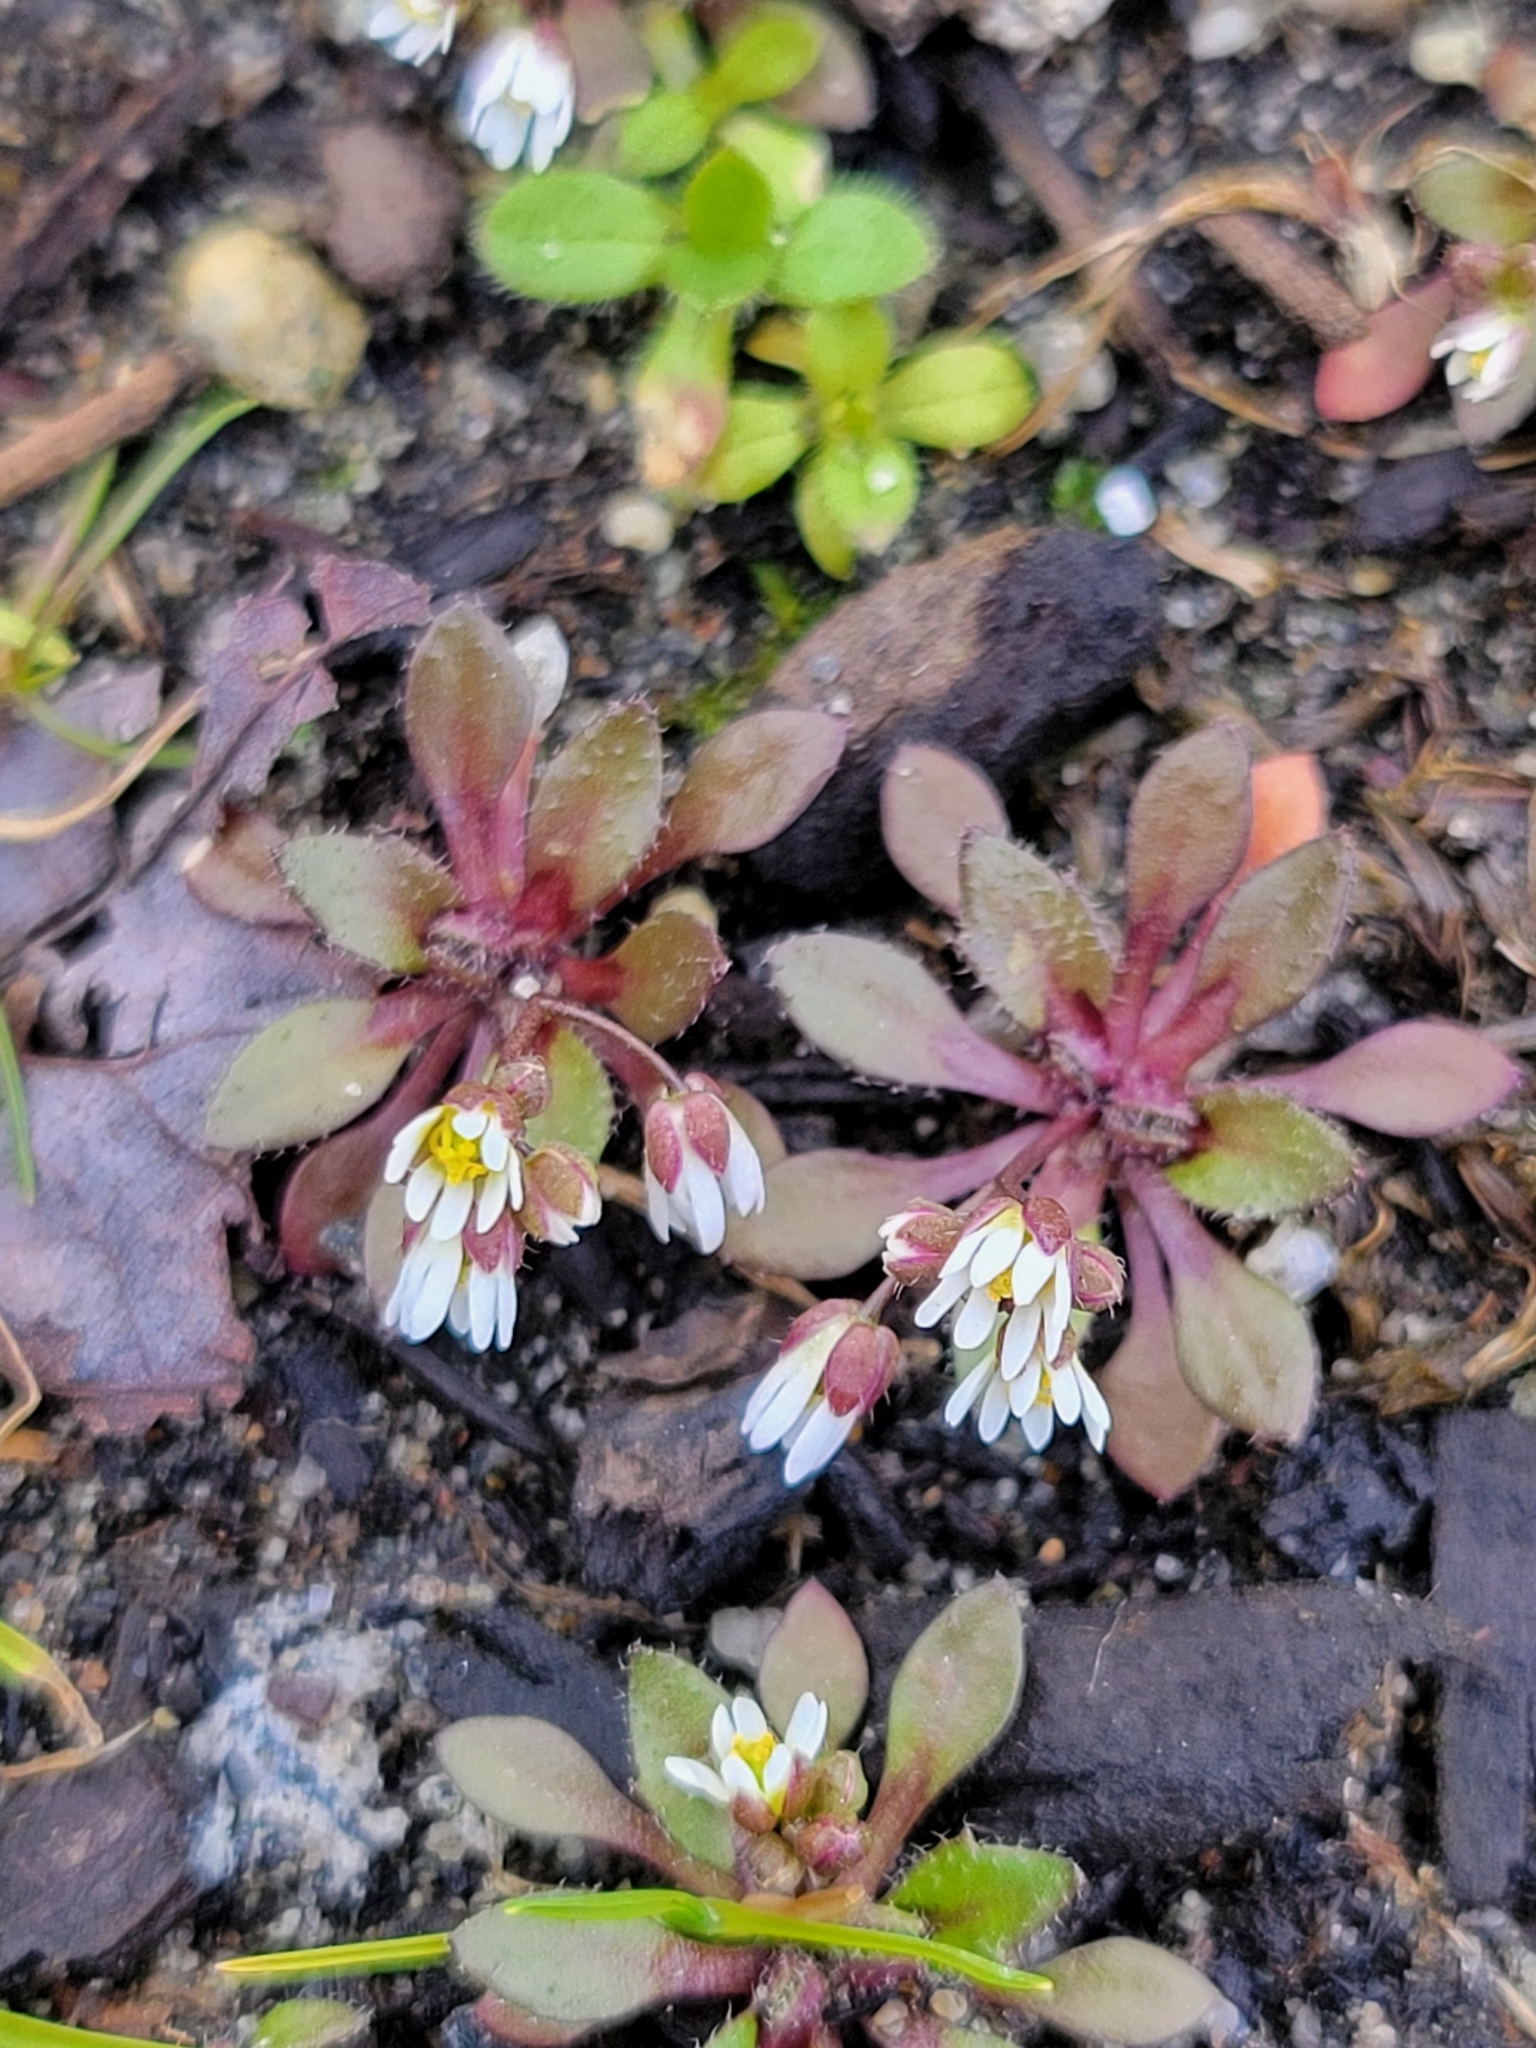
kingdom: Plantae
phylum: Tracheophyta
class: Magnoliopsida
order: Brassicales
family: Brassicaceae
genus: Draba
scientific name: Draba verna
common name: Spring draba
